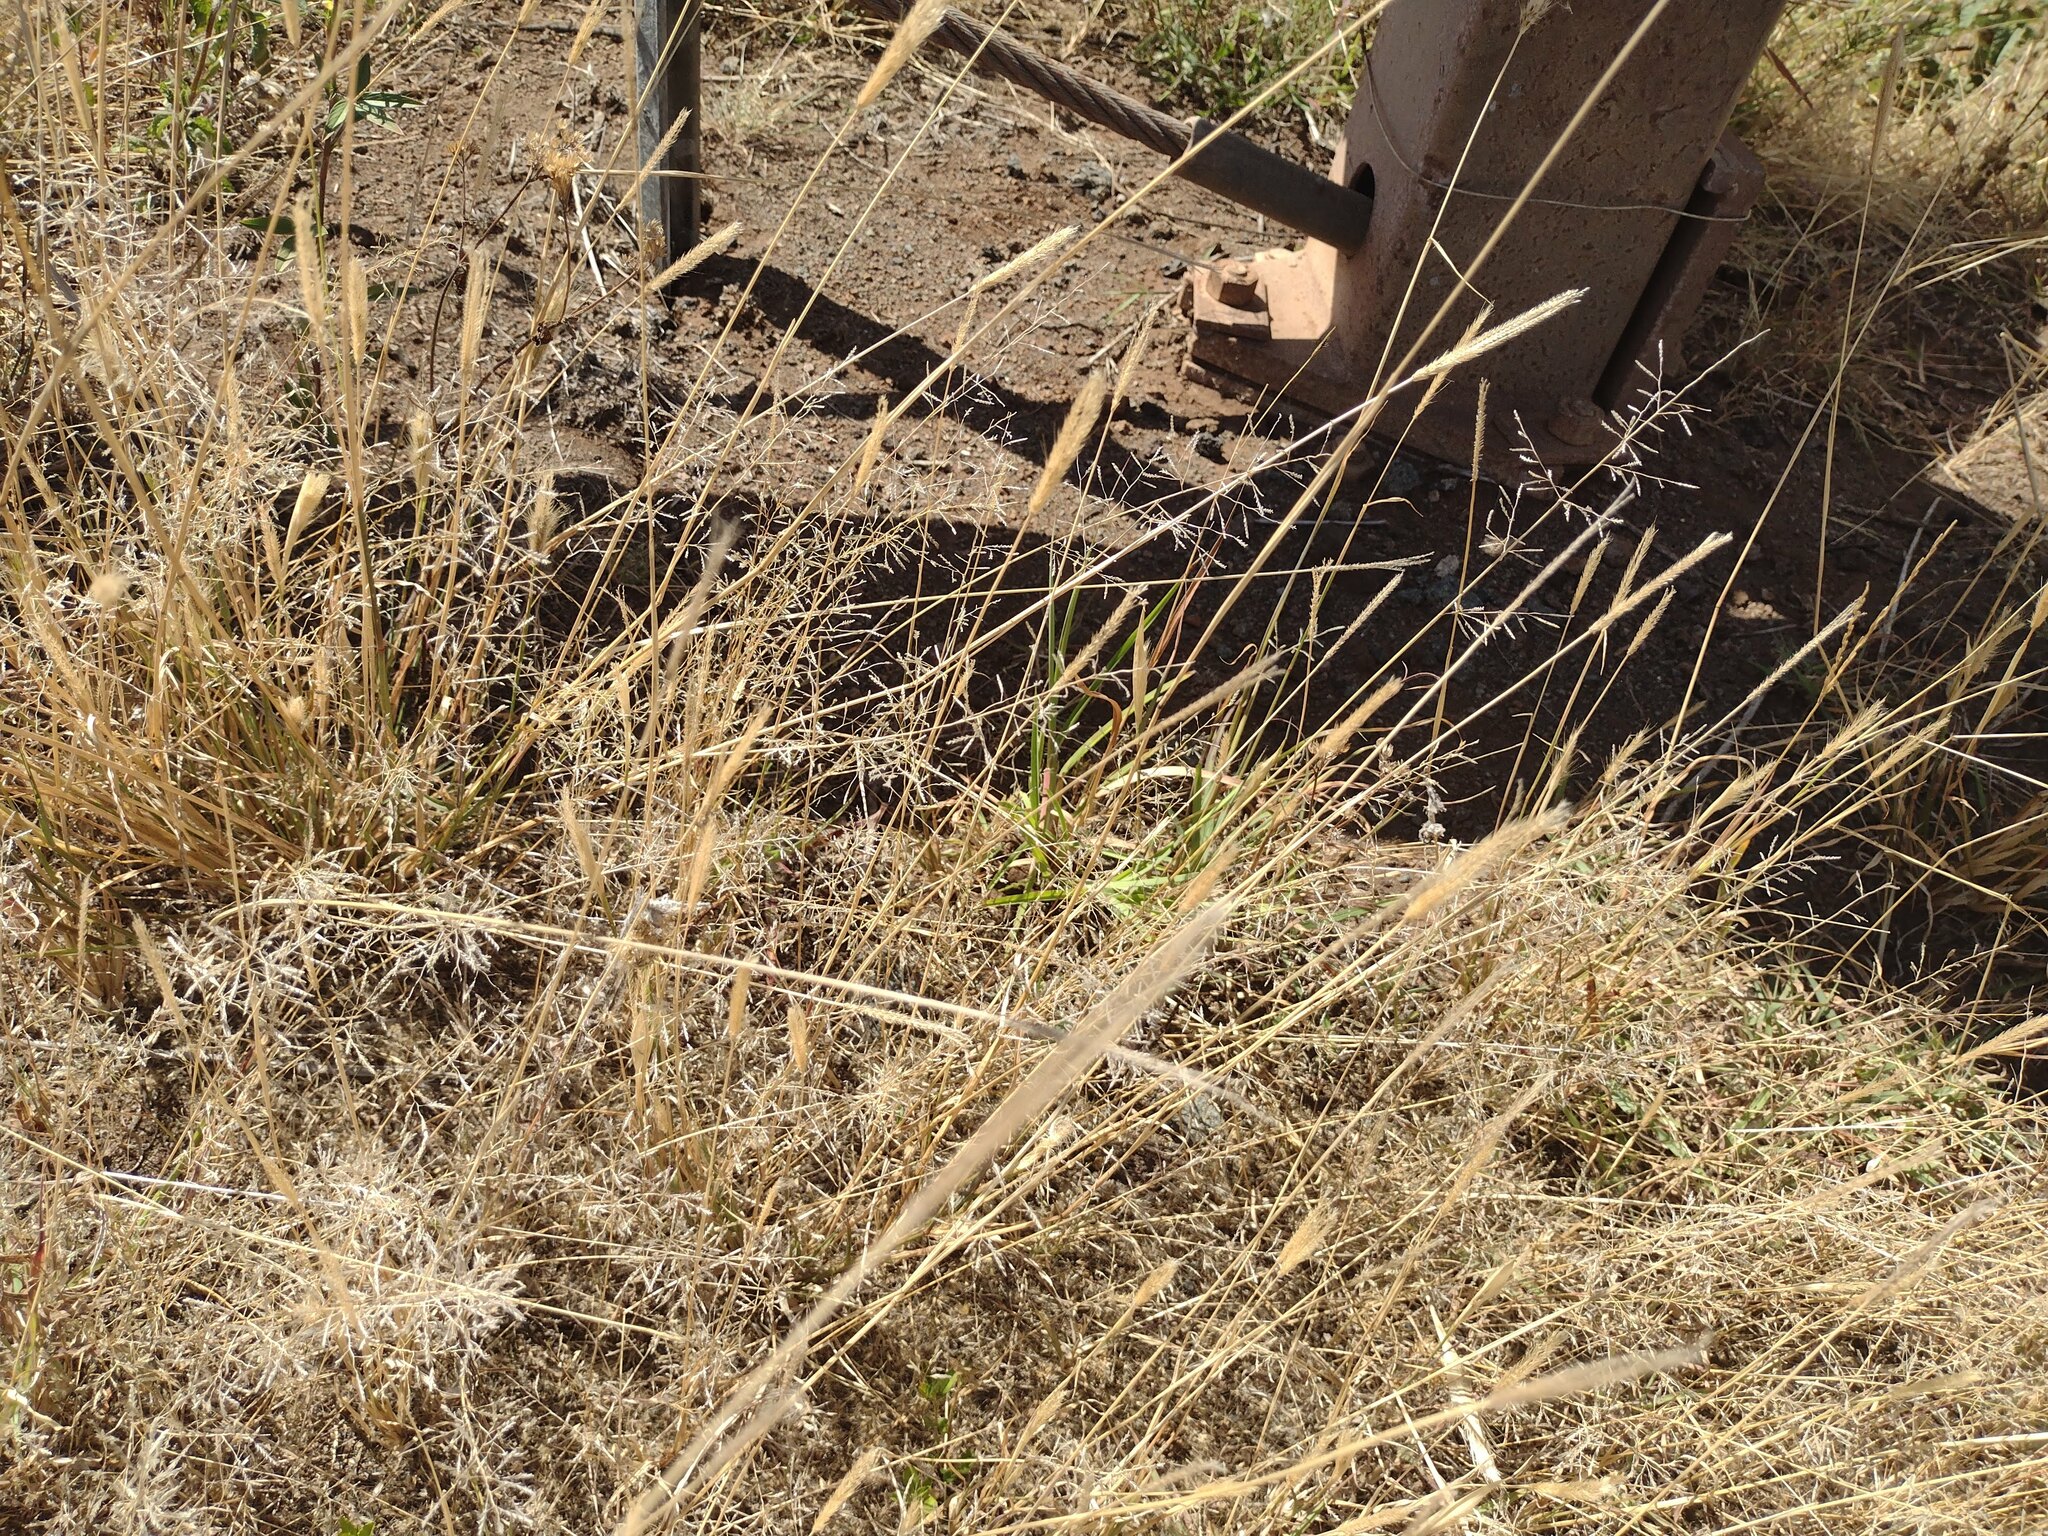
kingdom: Plantae
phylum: Tracheophyta
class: Liliopsida
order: Poales
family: Poaceae
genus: Chloris
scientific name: Chloris virgata
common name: Feathery rhodes-grass
